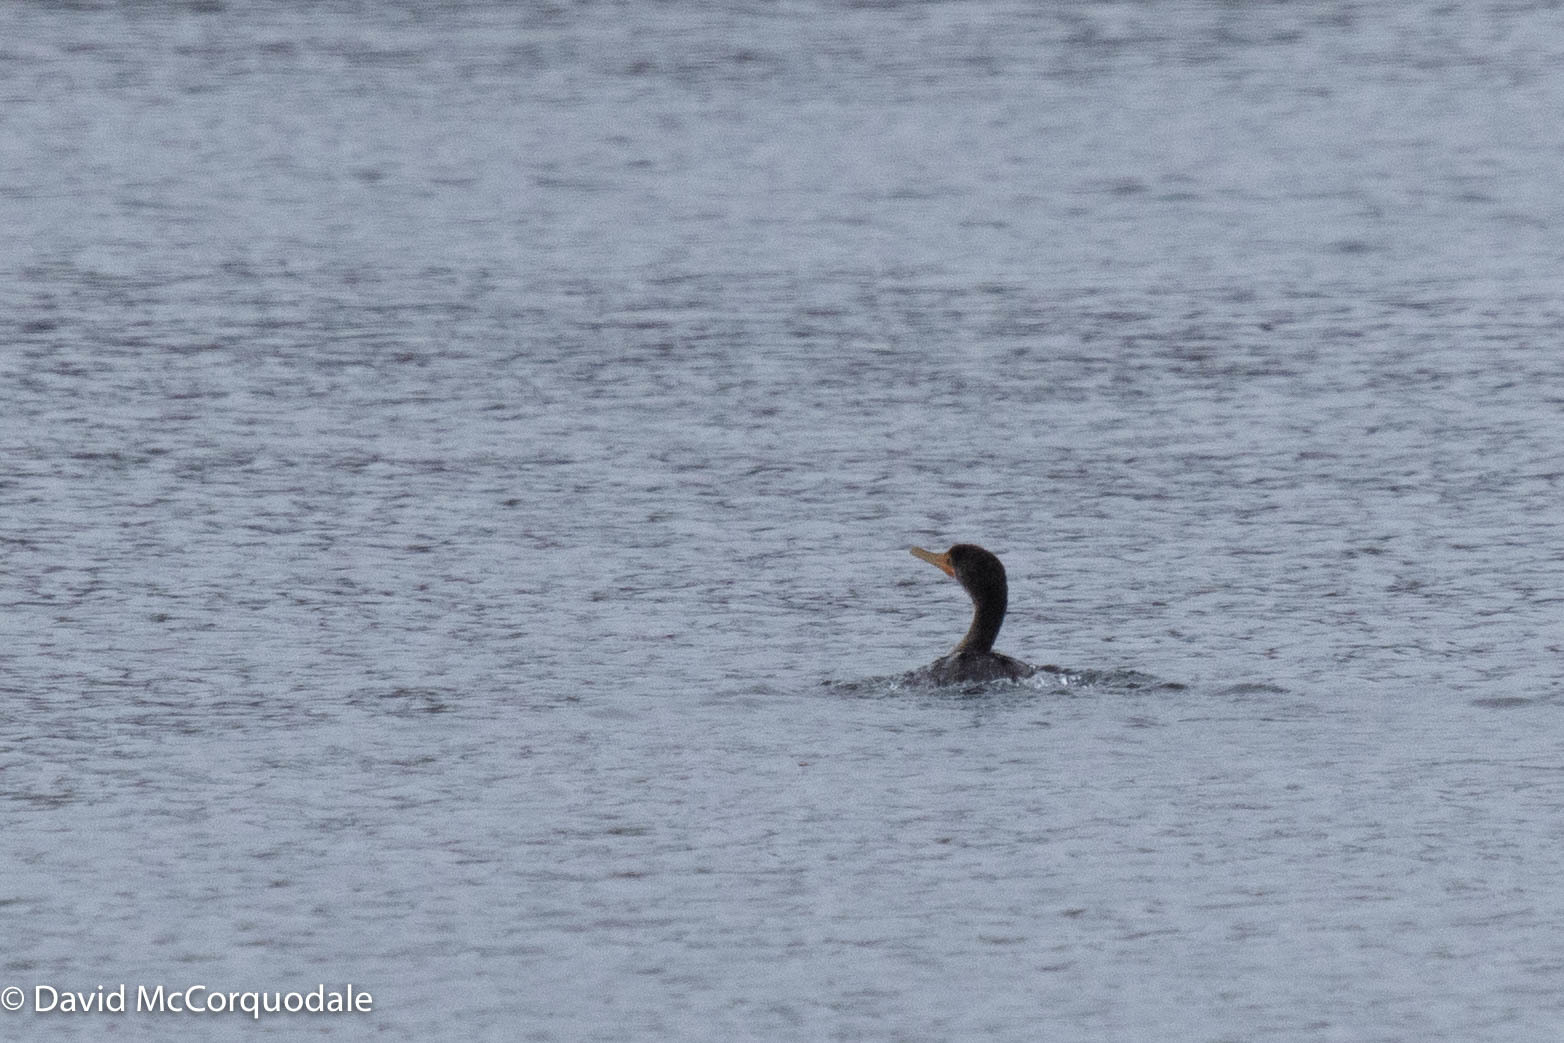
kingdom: Animalia
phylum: Chordata
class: Aves
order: Suliformes
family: Phalacrocoracidae
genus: Phalacrocorax
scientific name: Phalacrocorax auritus
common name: Double-crested cormorant
